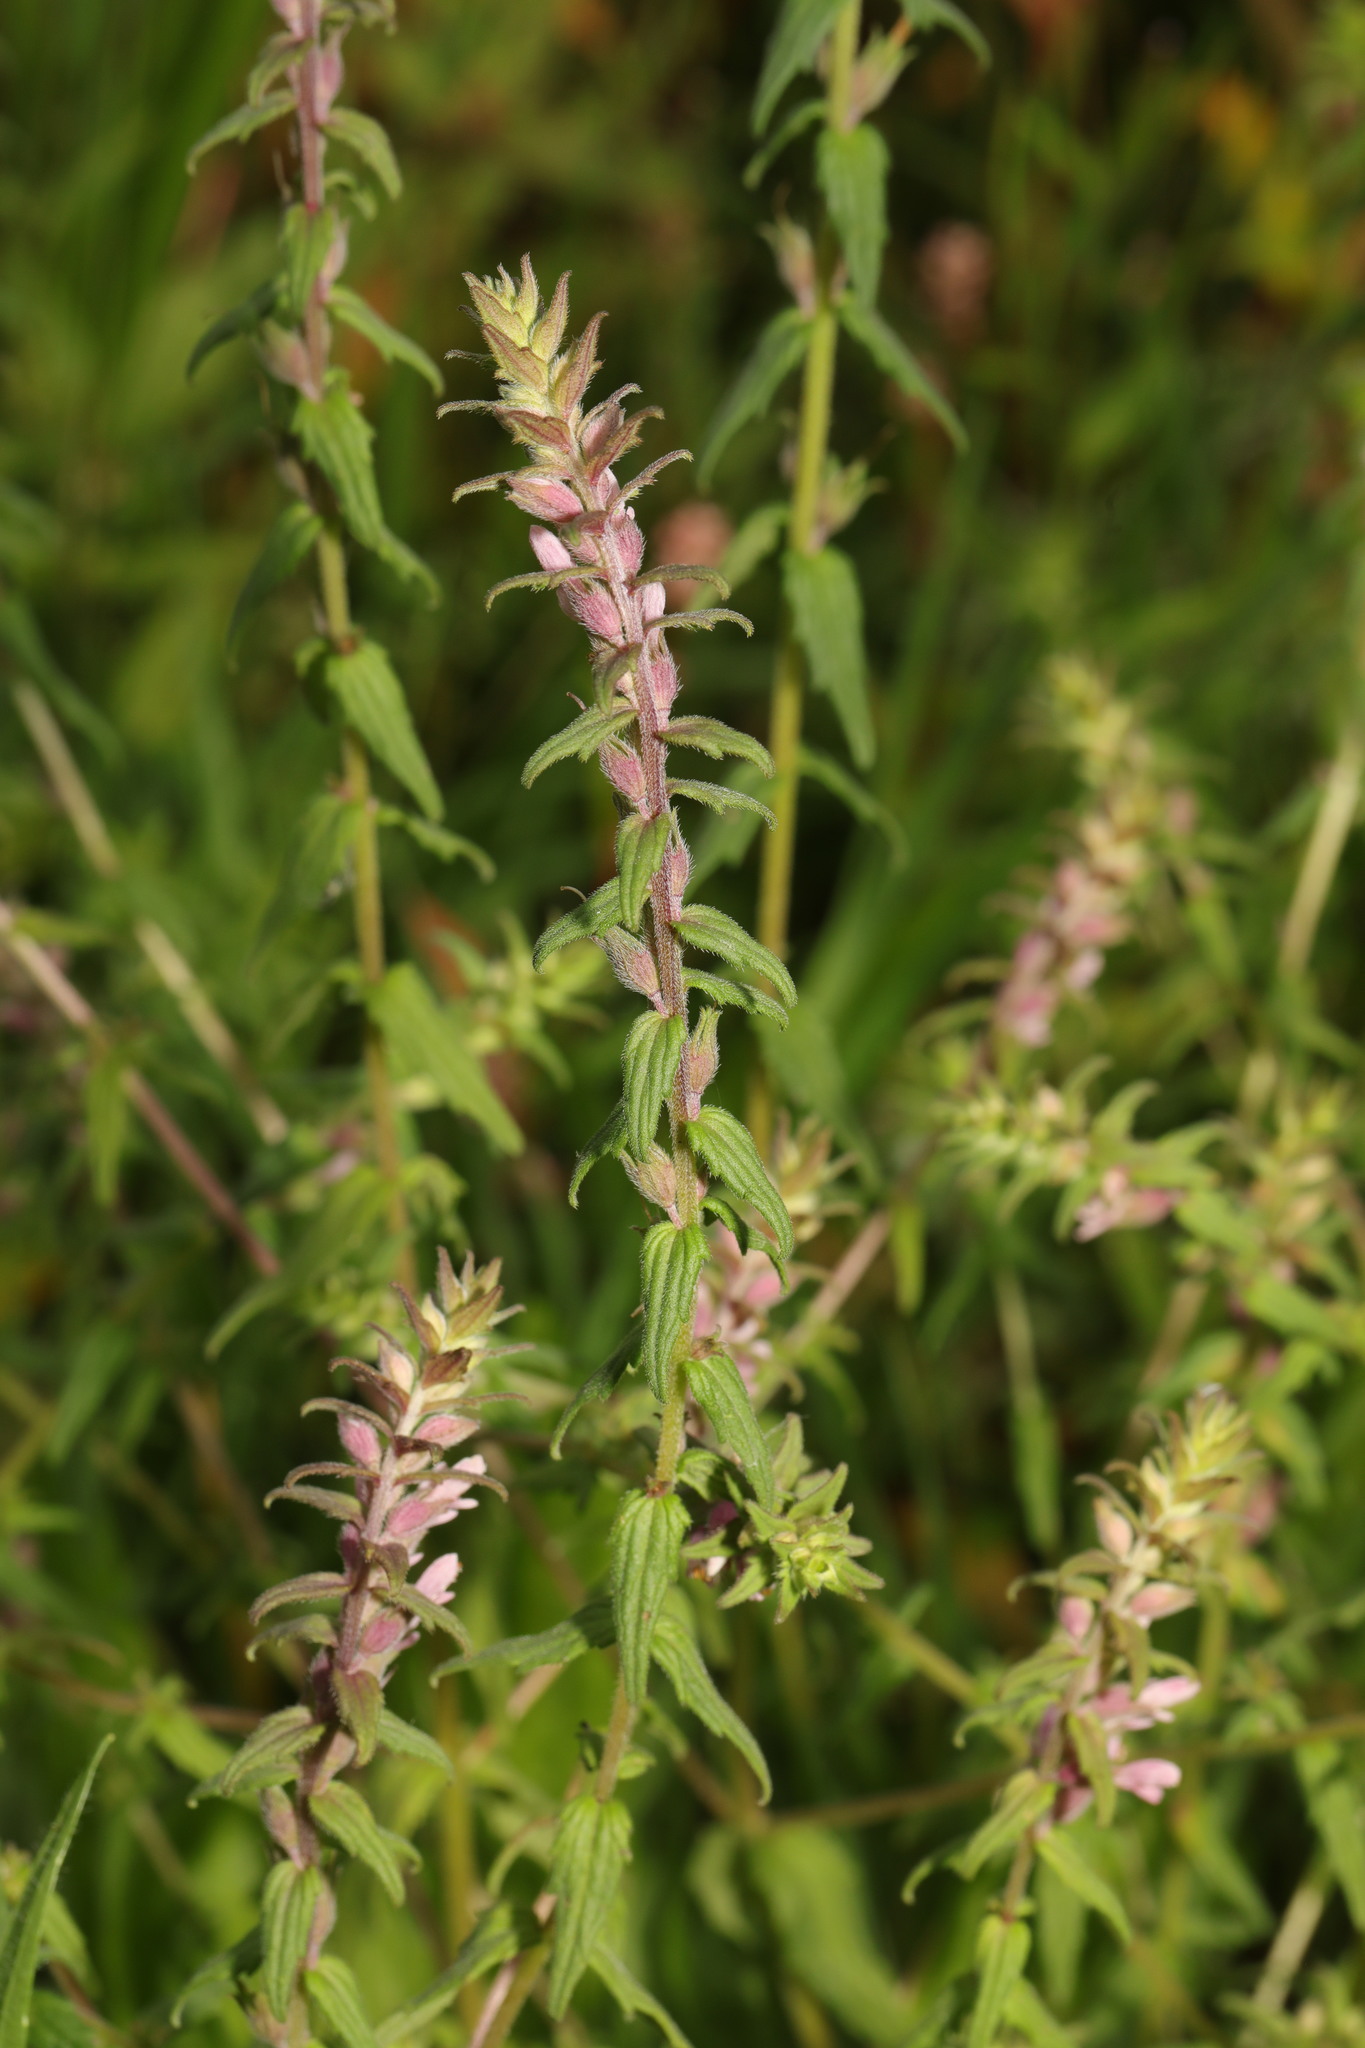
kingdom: Plantae
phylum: Tracheophyta
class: Magnoliopsida
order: Lamiales
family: Orobanchaceae
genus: Odontites
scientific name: Odontites vulgaris
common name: Broomrape
